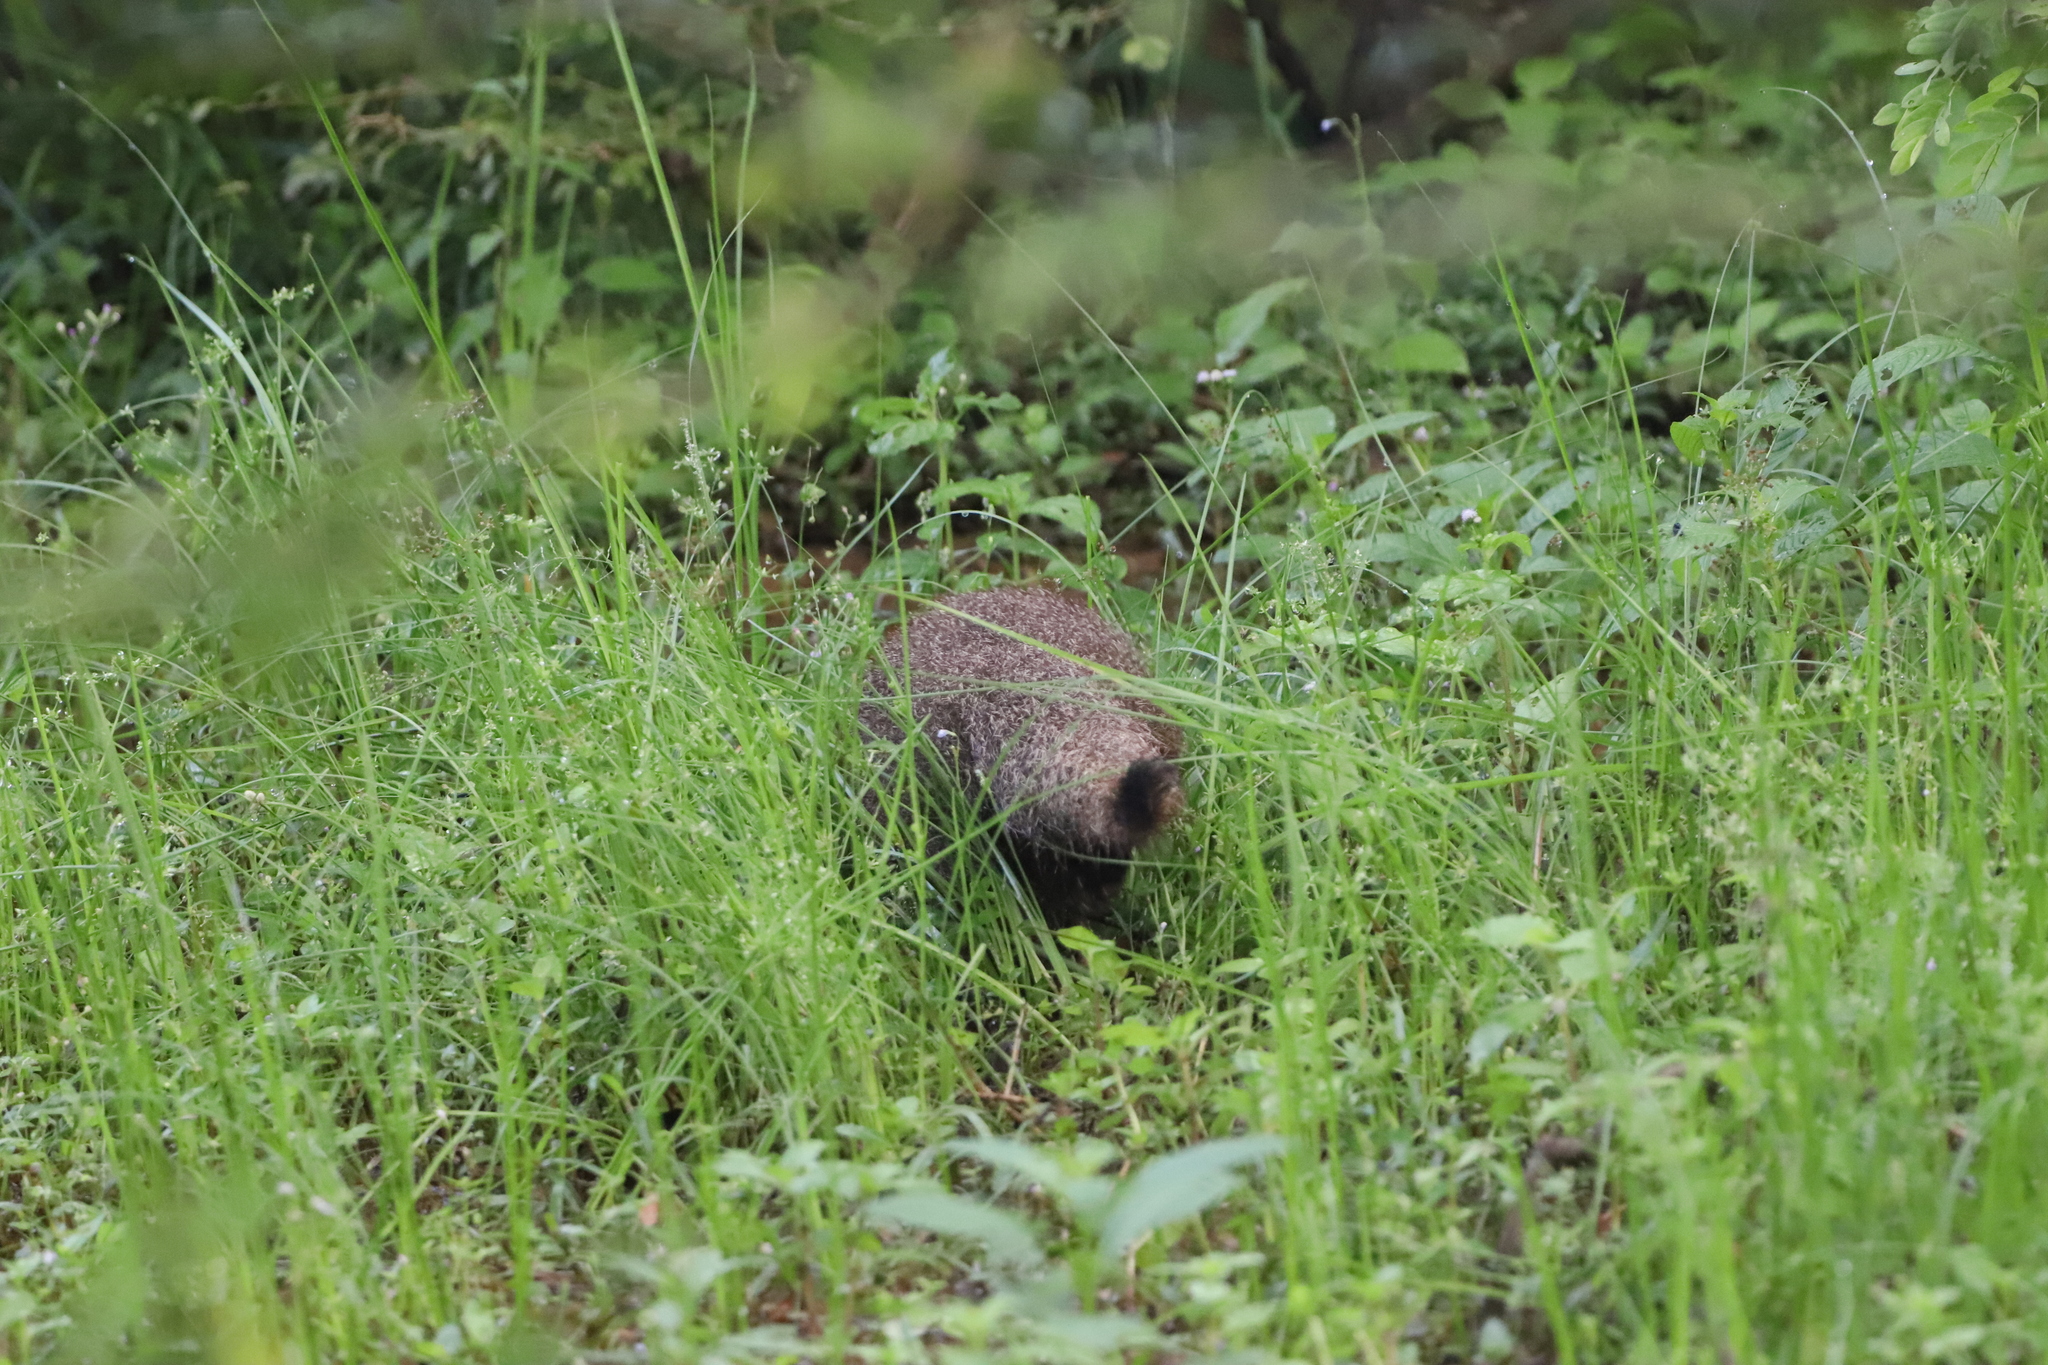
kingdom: Animalia
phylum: Chordata
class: Mammalia
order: Carnivora
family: Herpestidae
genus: Herpestes
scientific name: Herpestes smithii
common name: Ruddy mongoose
